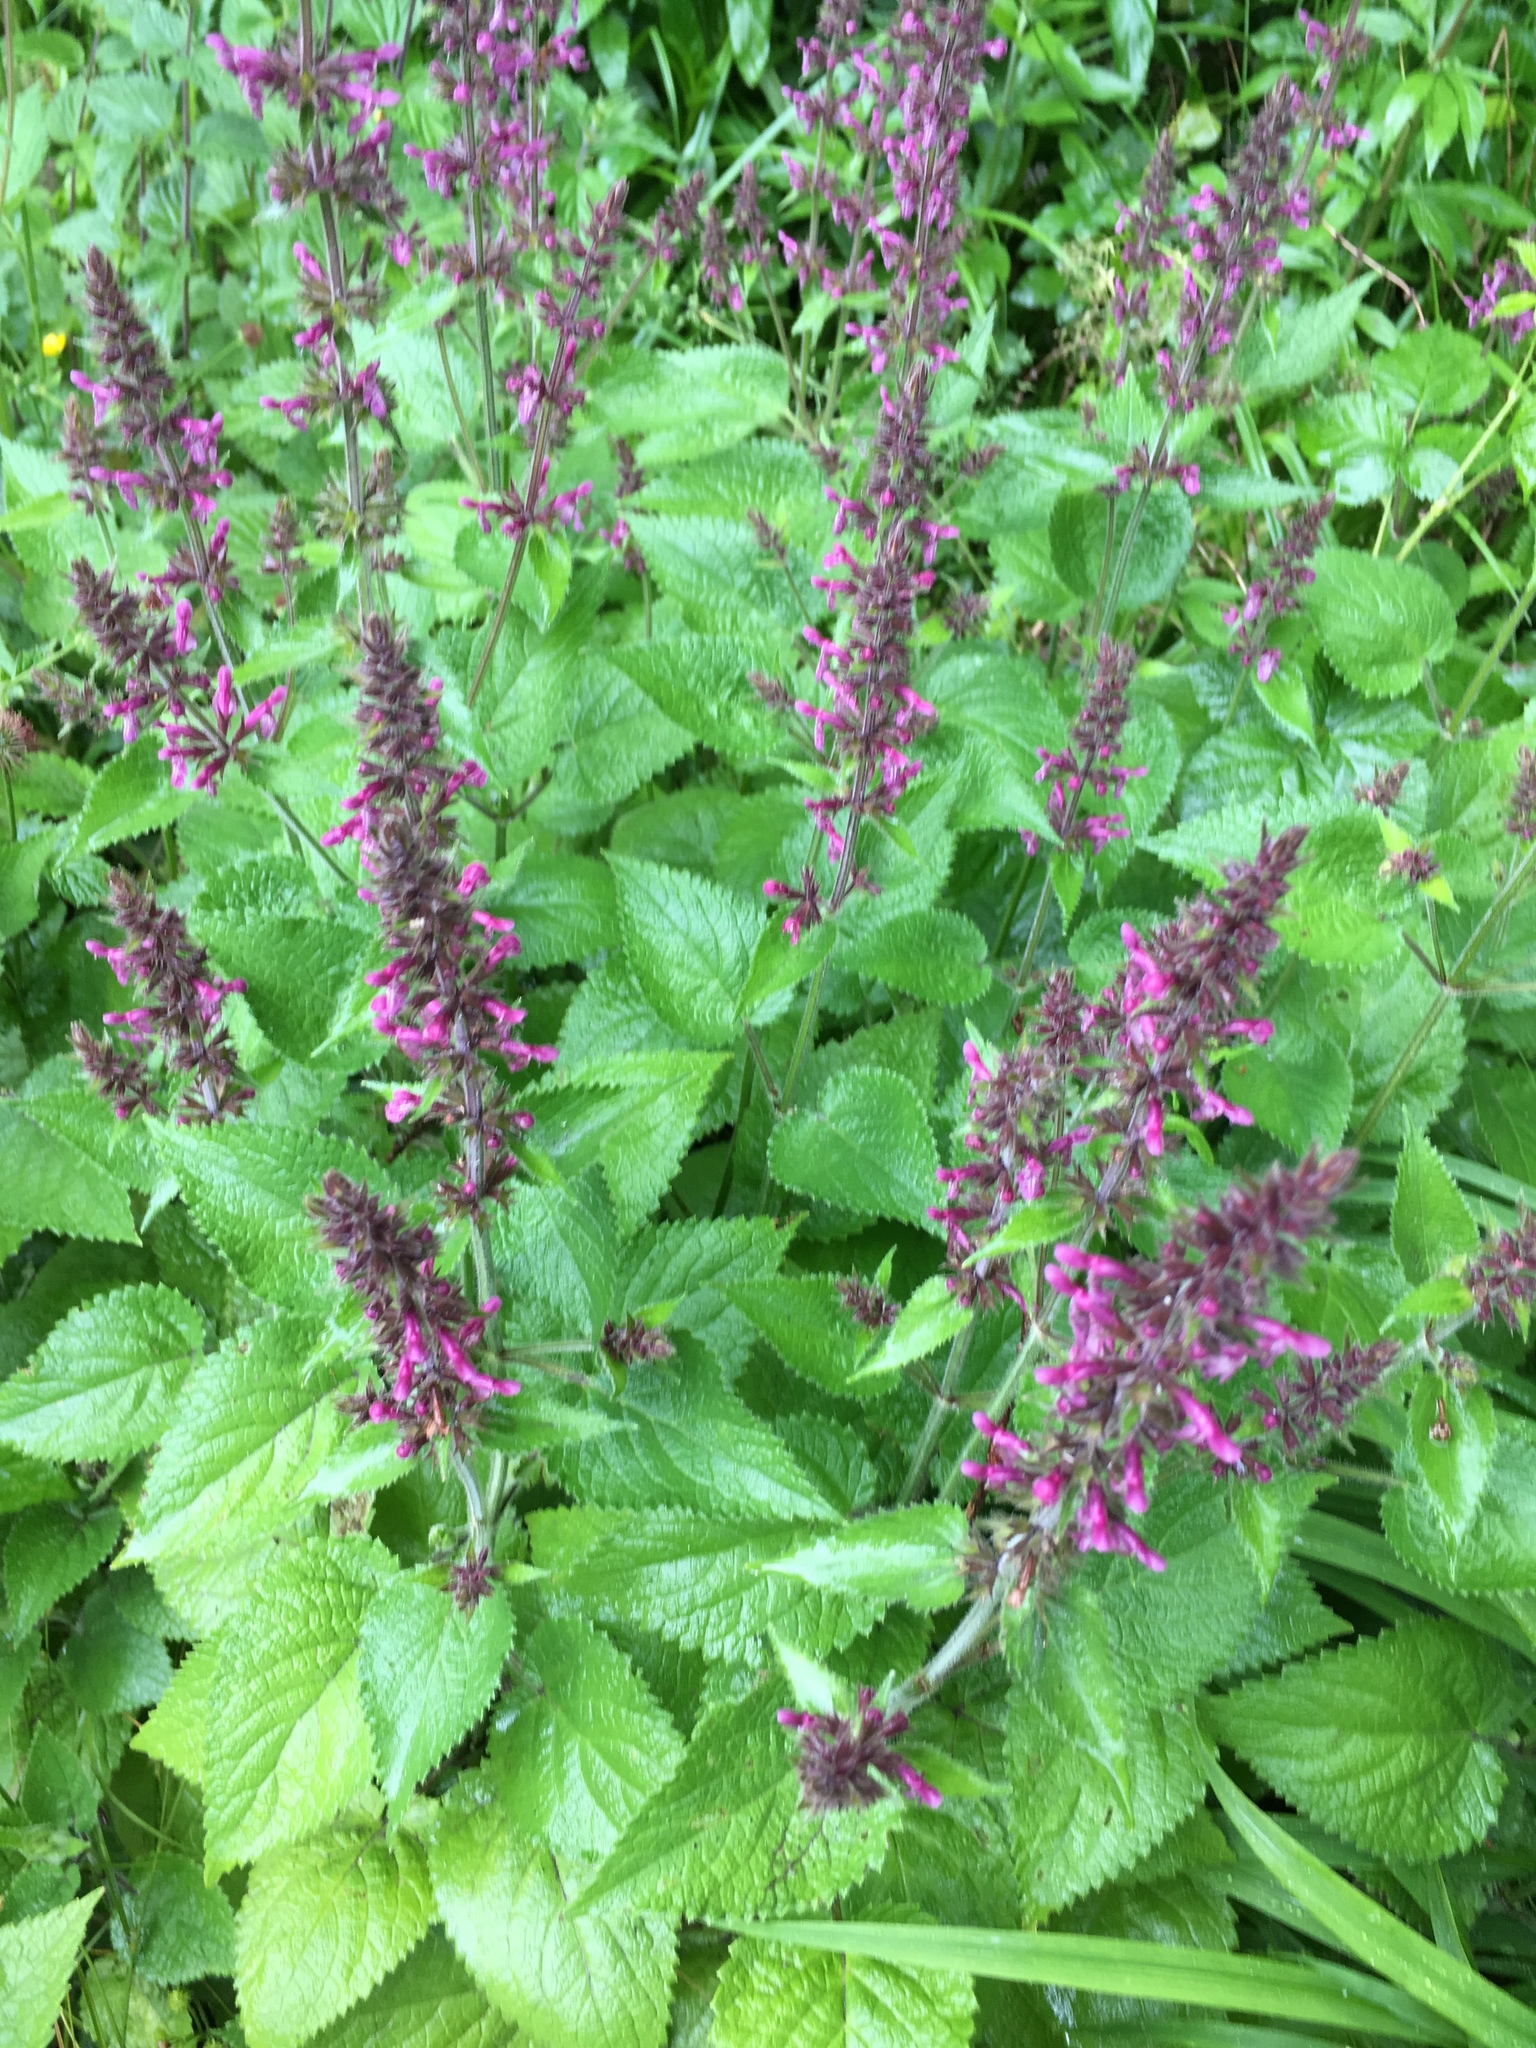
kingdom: Plantae
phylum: Tracheophyta
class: Magnoliopsida
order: Lamiales
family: Lamiaceae
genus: Stachys
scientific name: Stachys sylvatica
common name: Hedge woundwort
